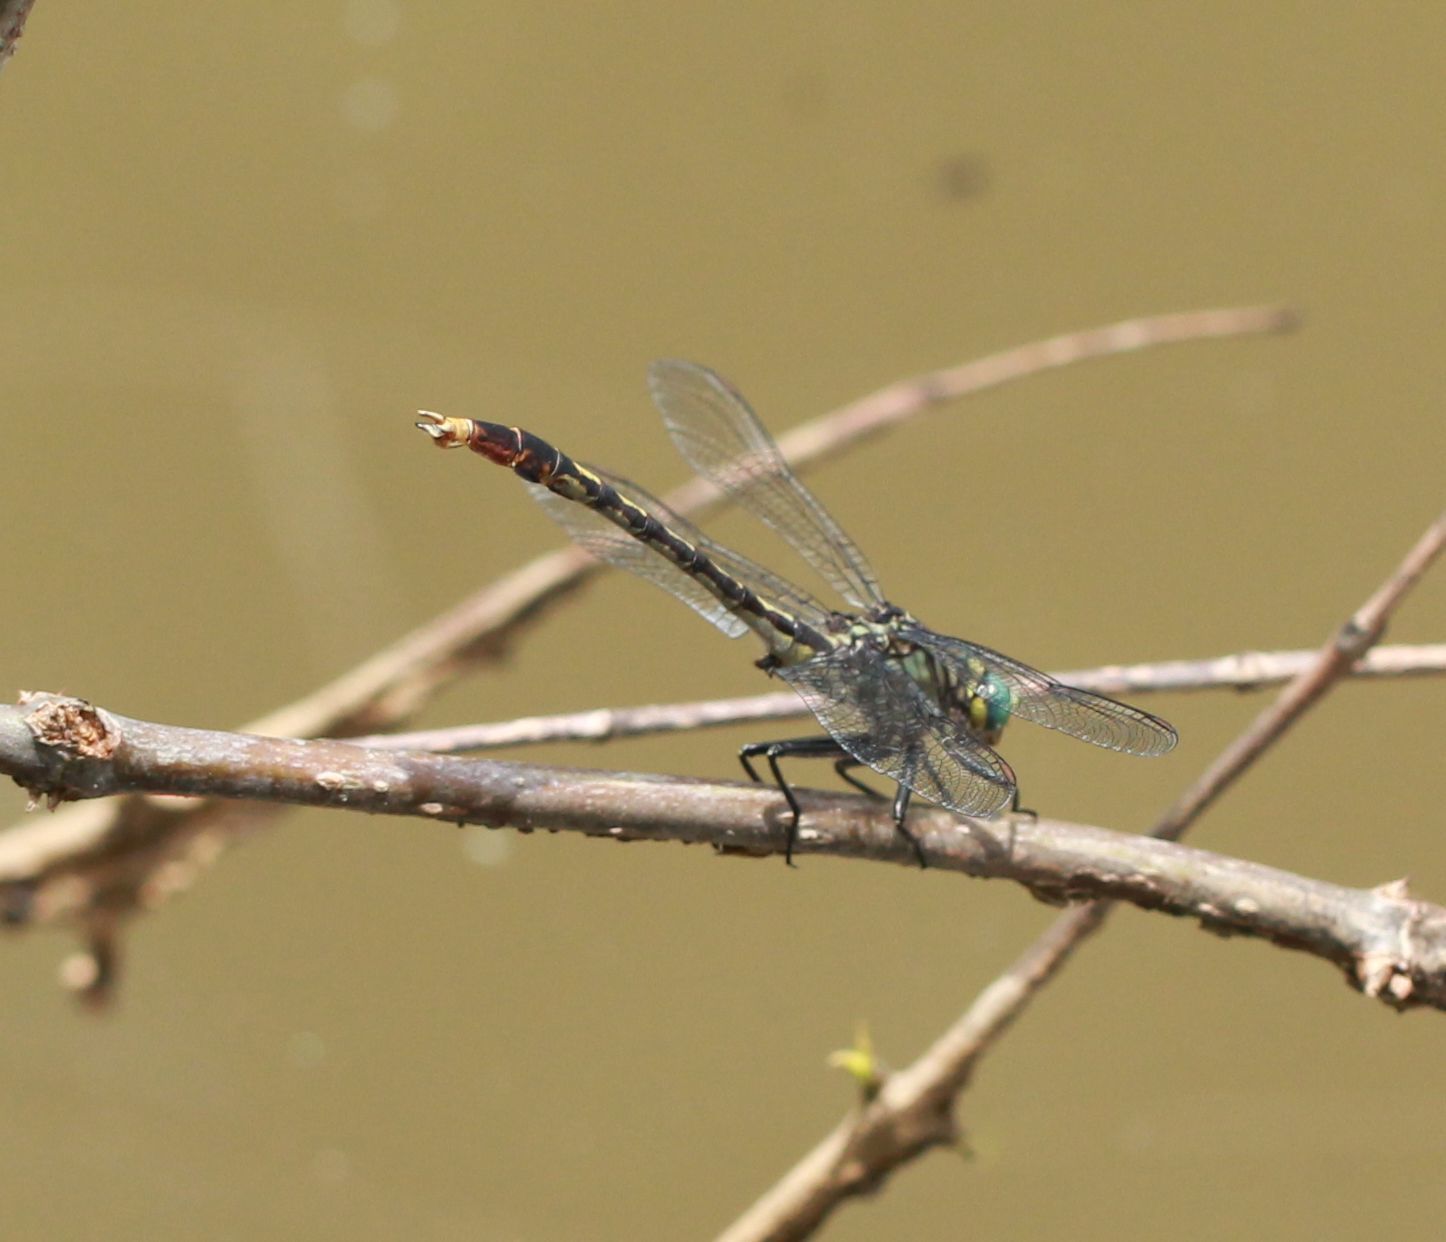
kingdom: Animalia
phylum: Arthropoda
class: Insecta
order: Odonata
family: Gomphidae
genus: Arigomphus
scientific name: Arigomphus villosipes
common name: Unicorn clubtail
